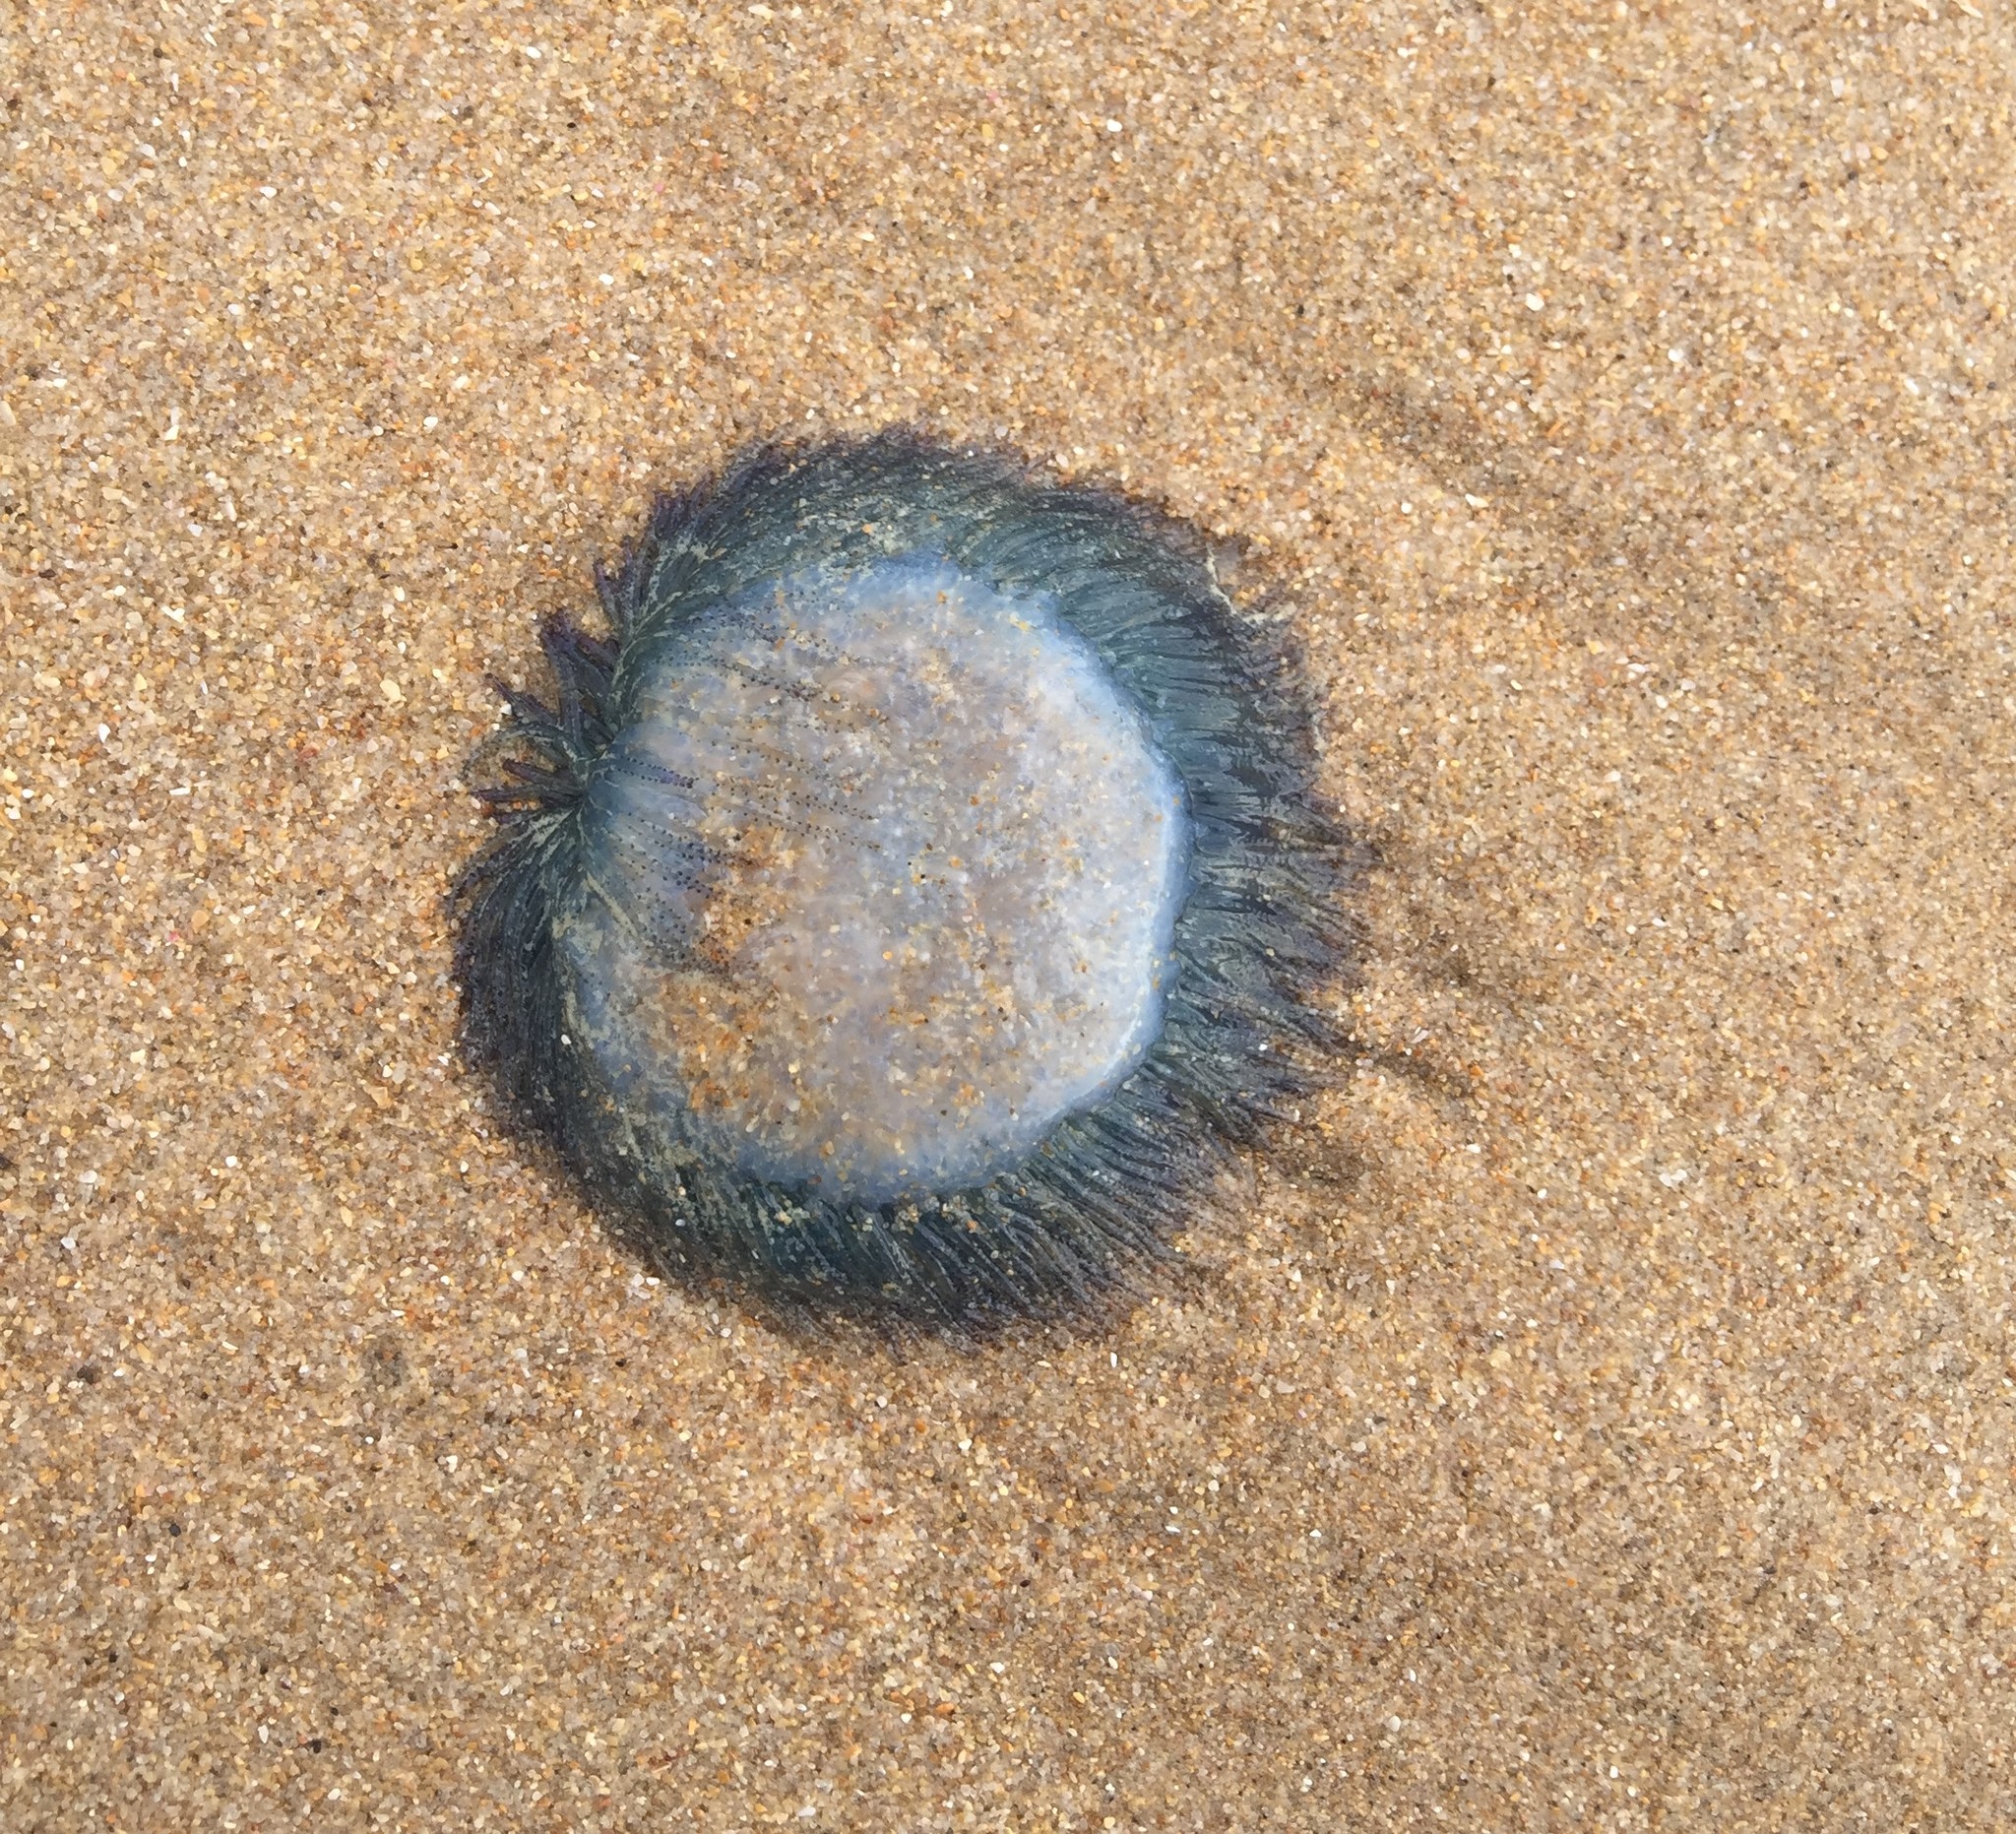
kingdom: Animalia
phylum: Cnidaria
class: Hydrozoa
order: Anthoathecata
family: Porpitidae
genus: Porpita
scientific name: Porpita porpita
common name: Blue button
